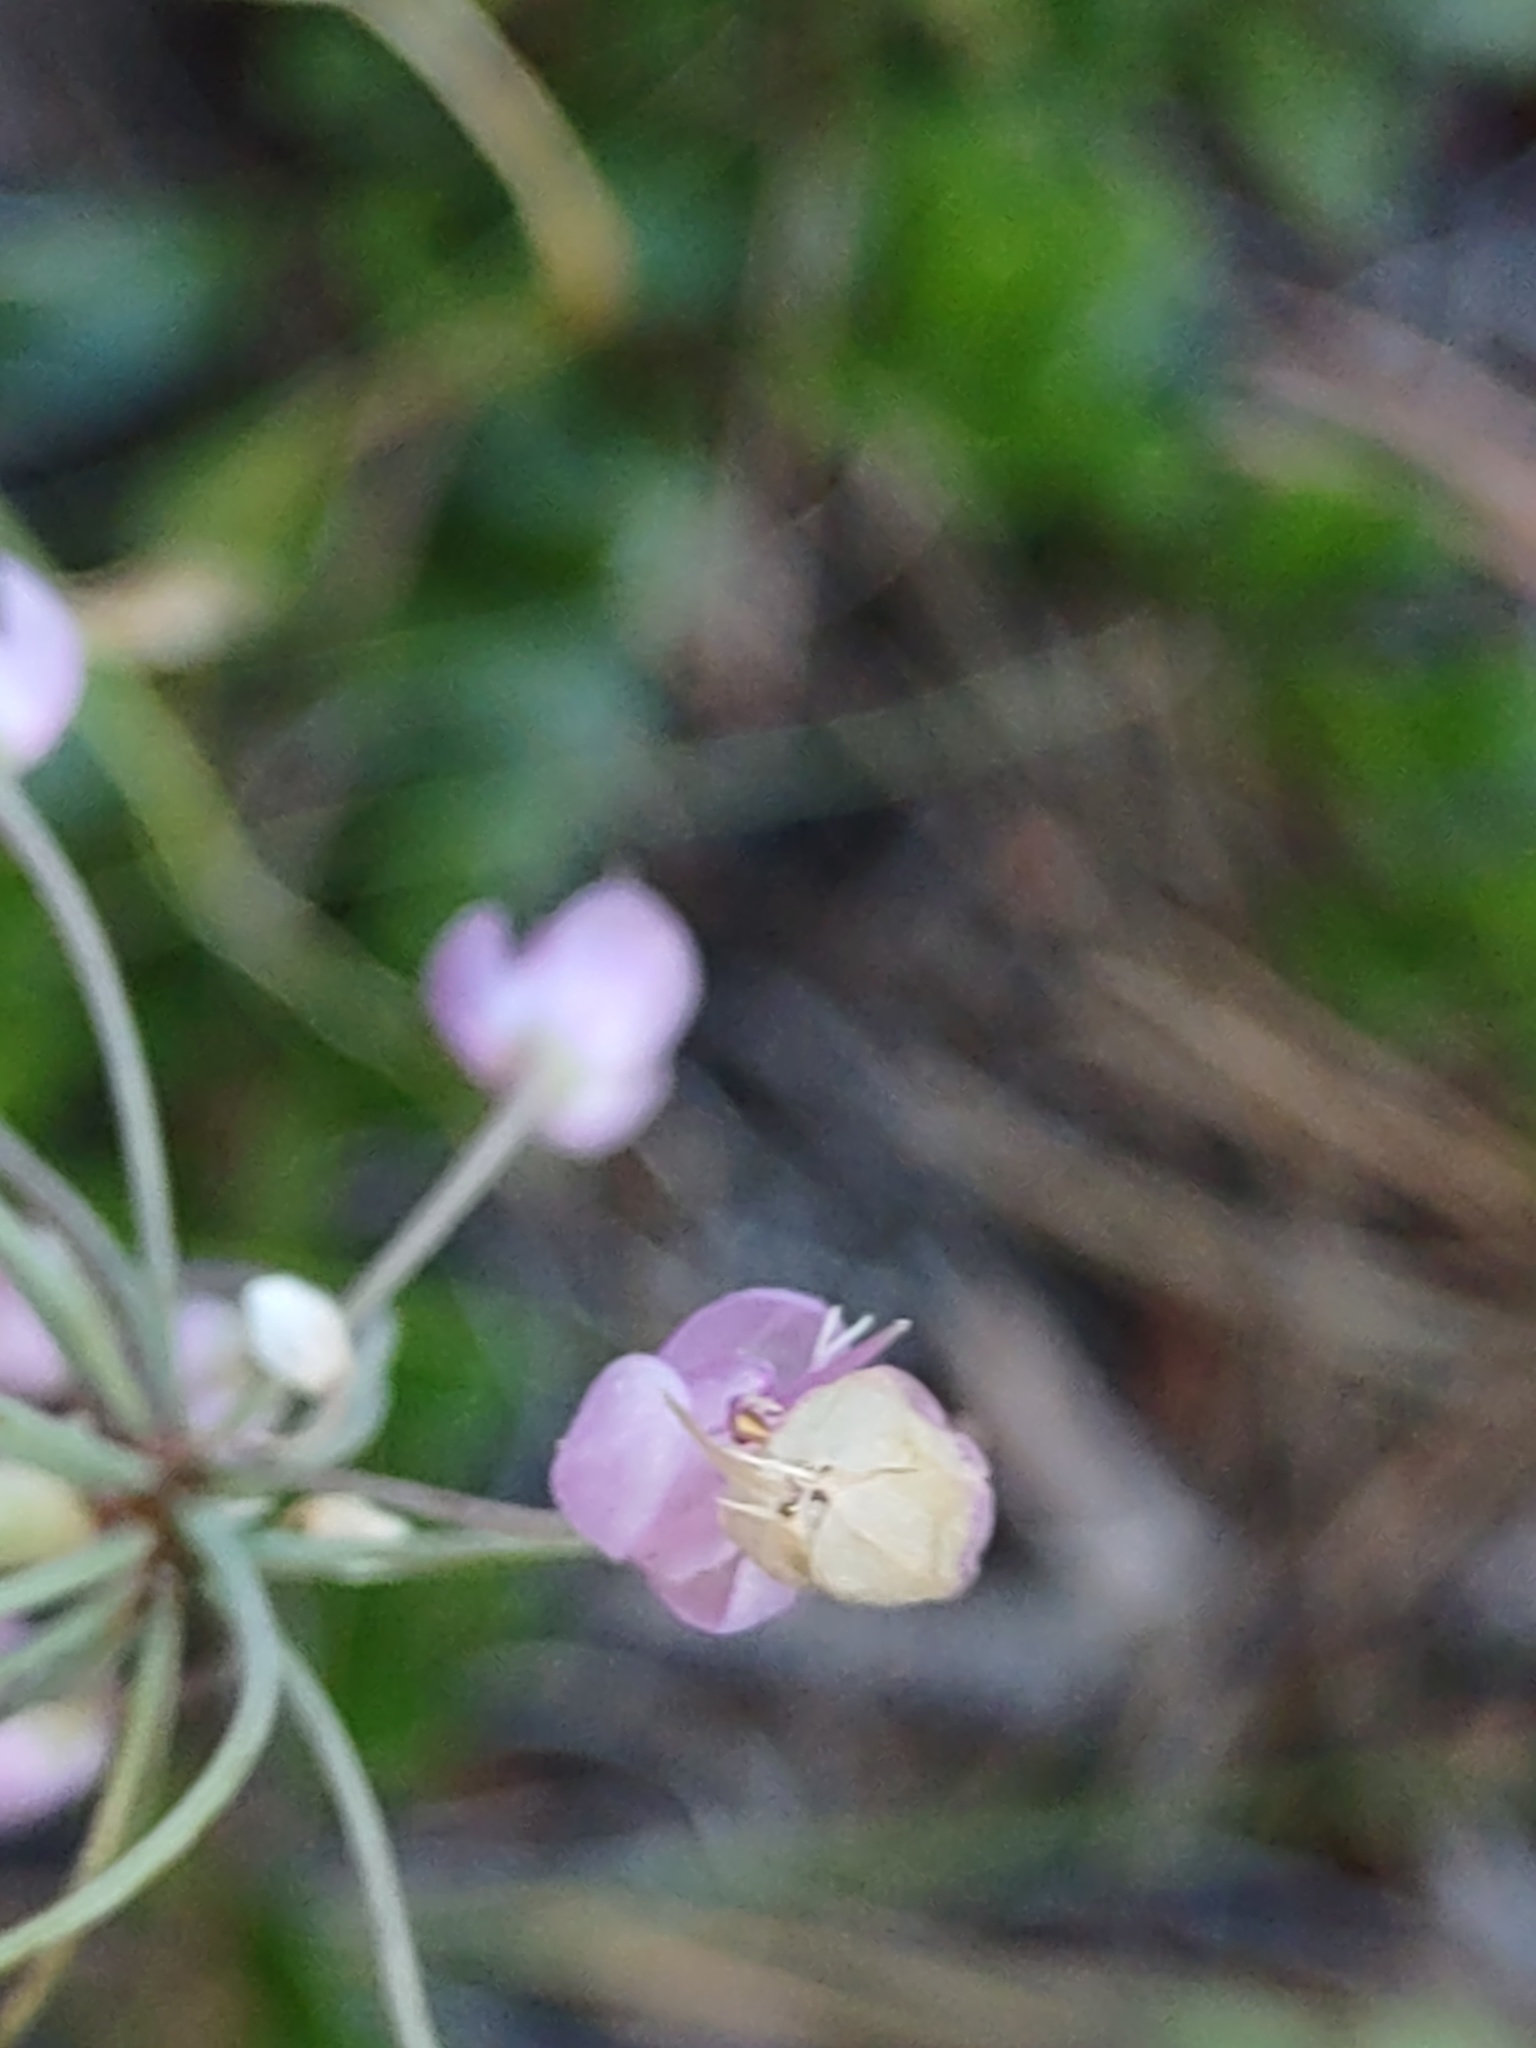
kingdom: Plantae
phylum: Tracheophyta
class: Liliopsida
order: Asparagales
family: Amaryllidaceae
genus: Allium
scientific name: Allium cernuum
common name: Nodding onion
